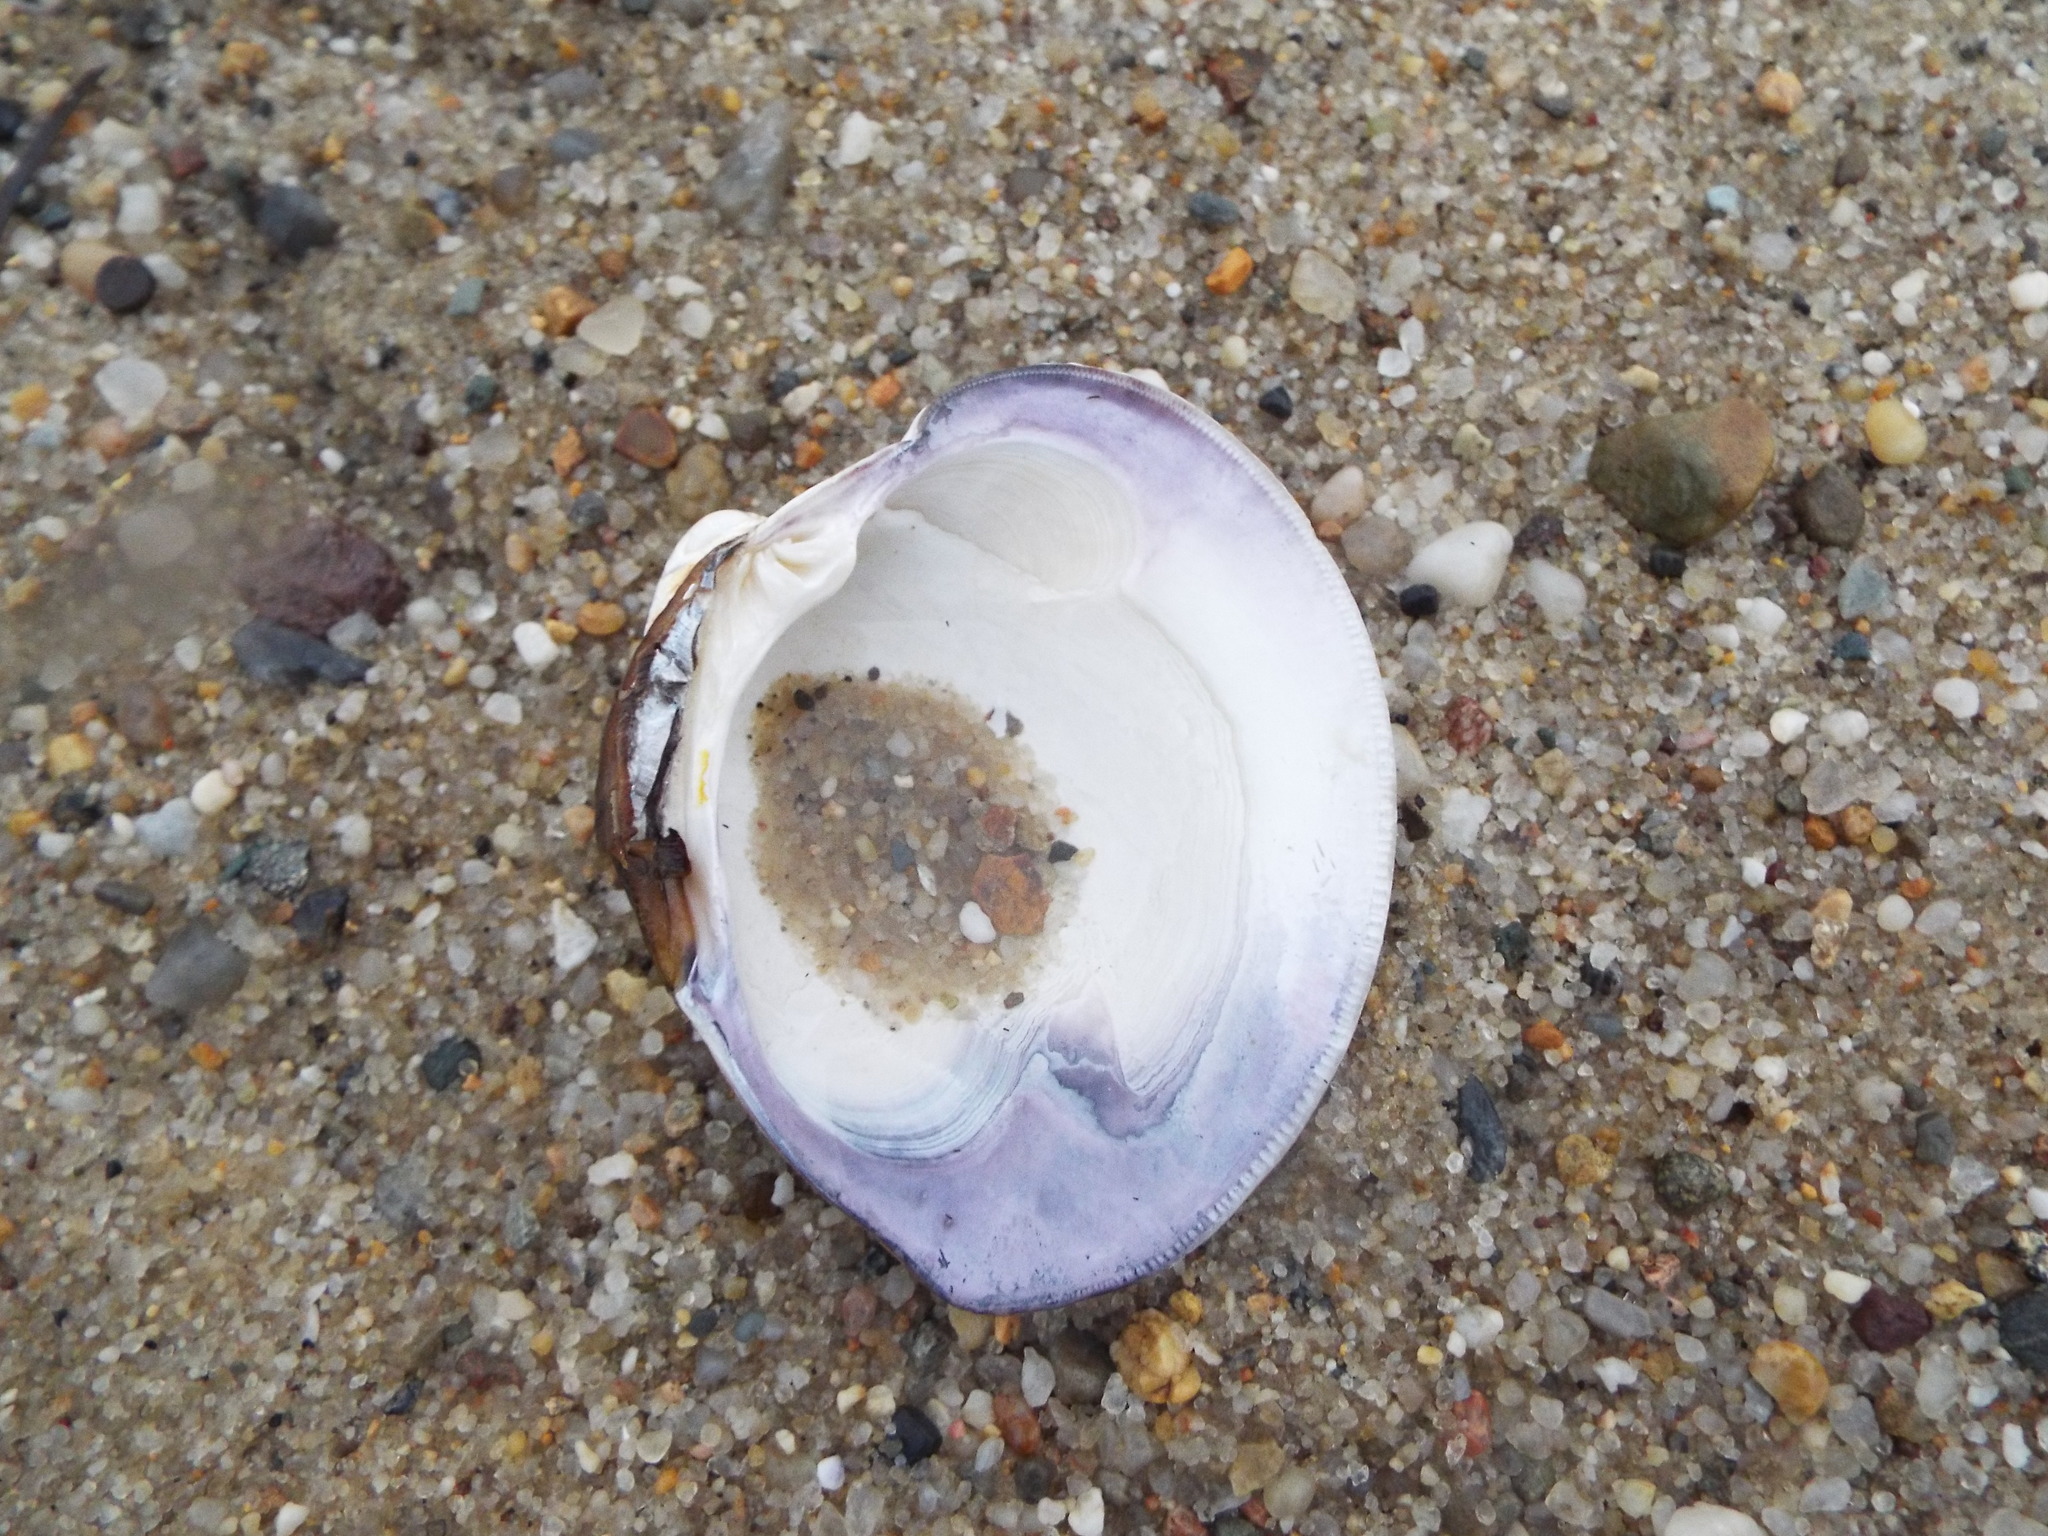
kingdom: Animalia
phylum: Mollusca
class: Bivalvia
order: Venerida
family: Veneridae
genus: Mercenaria
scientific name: Mercenaria mercenaria
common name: American hard-shelled clam
